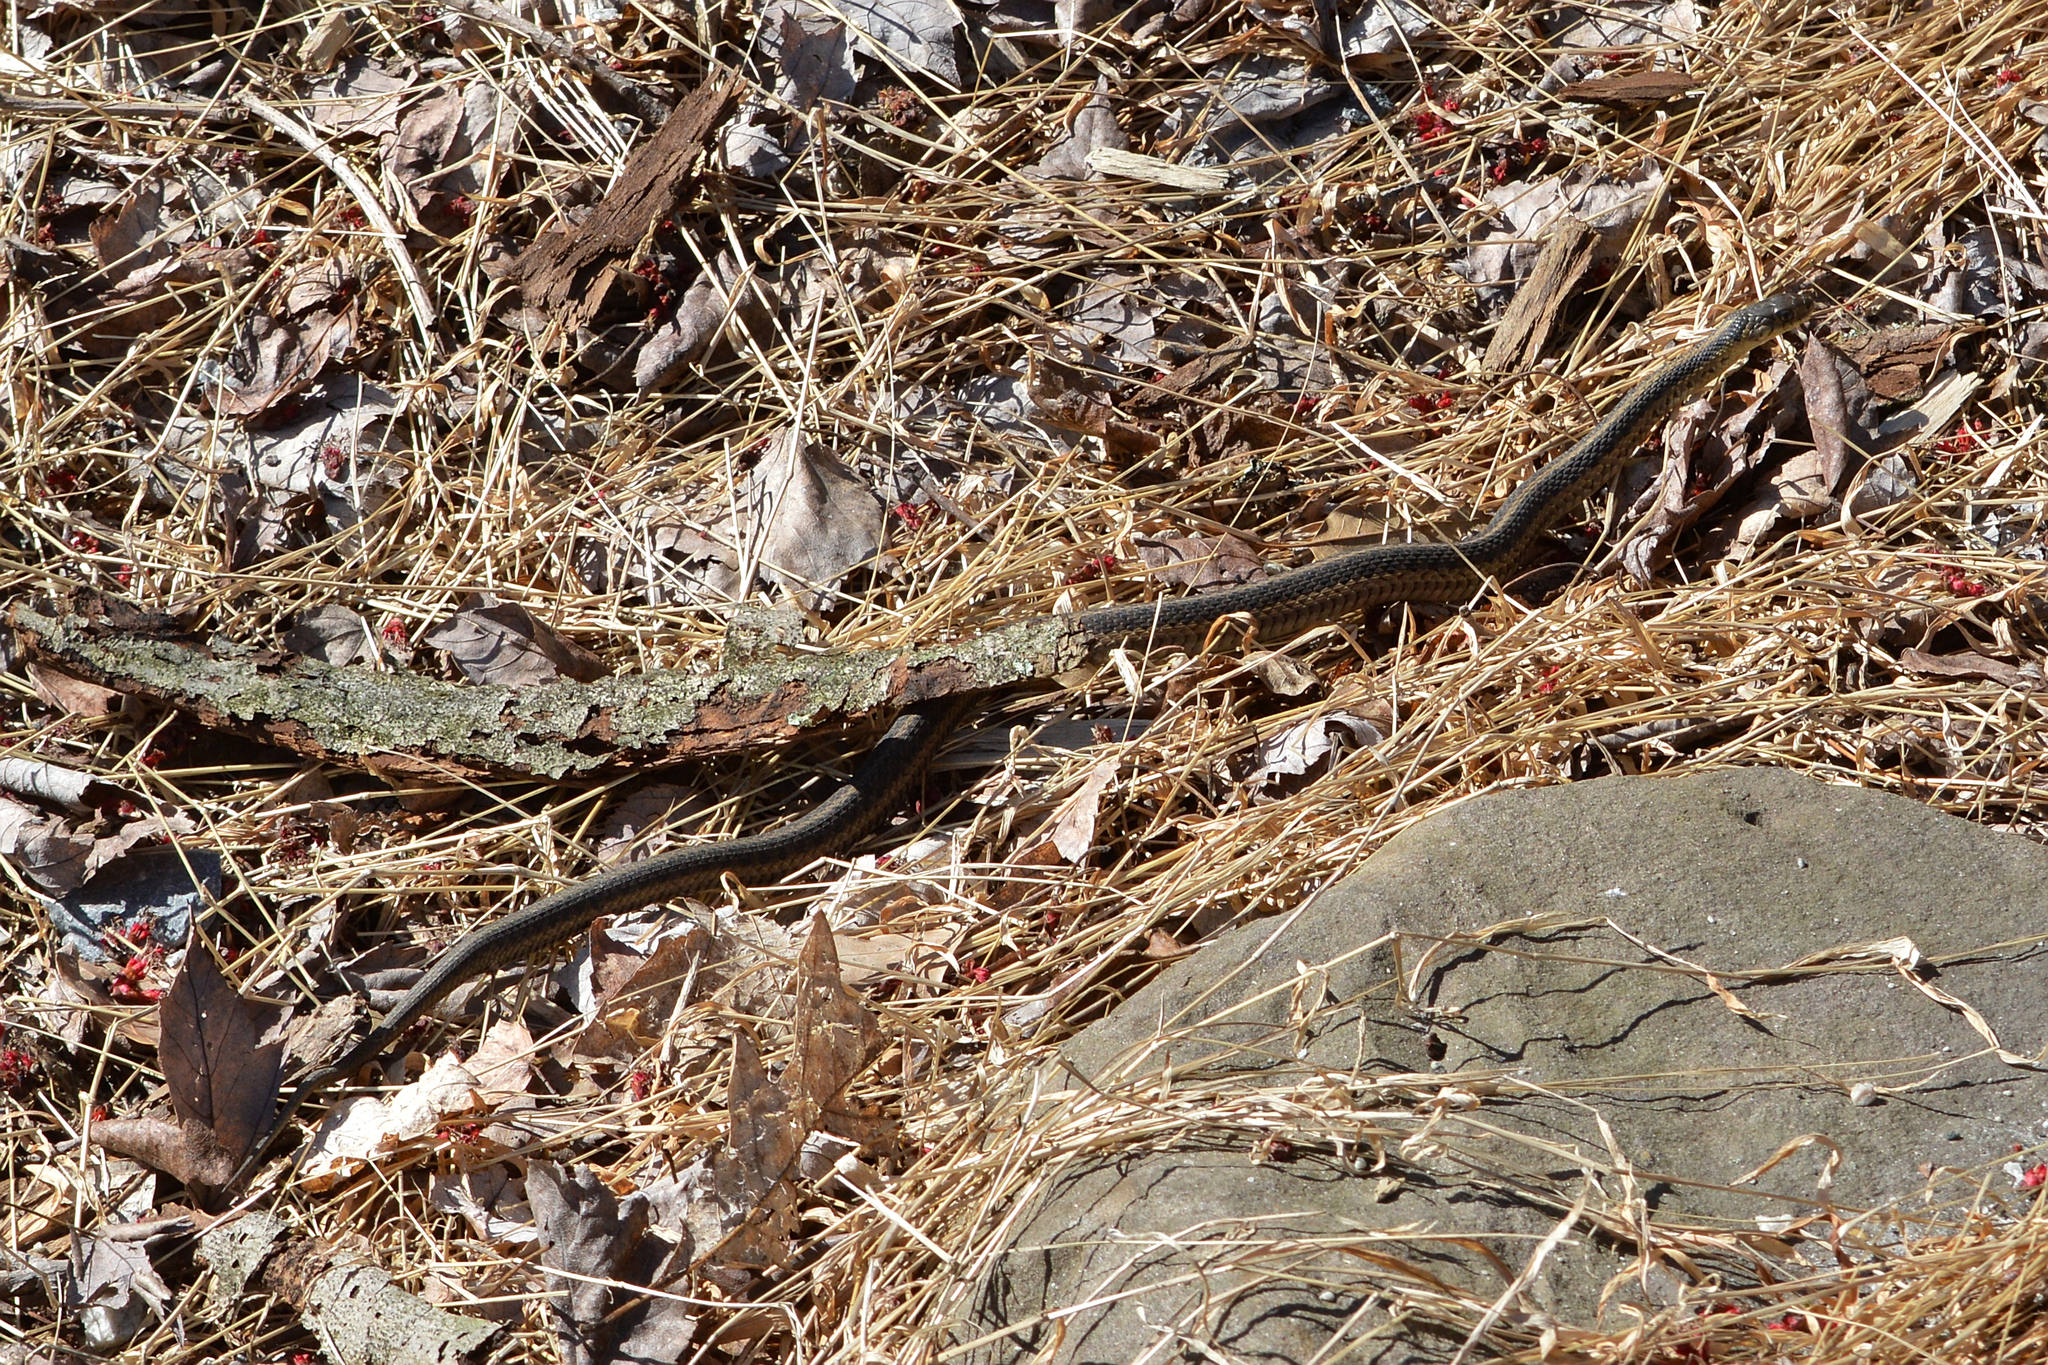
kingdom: Animalia
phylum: Chordata
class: Squamata
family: Colubridae
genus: Thamnophis
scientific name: Thamnophis sirtalis
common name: Common garter snake
